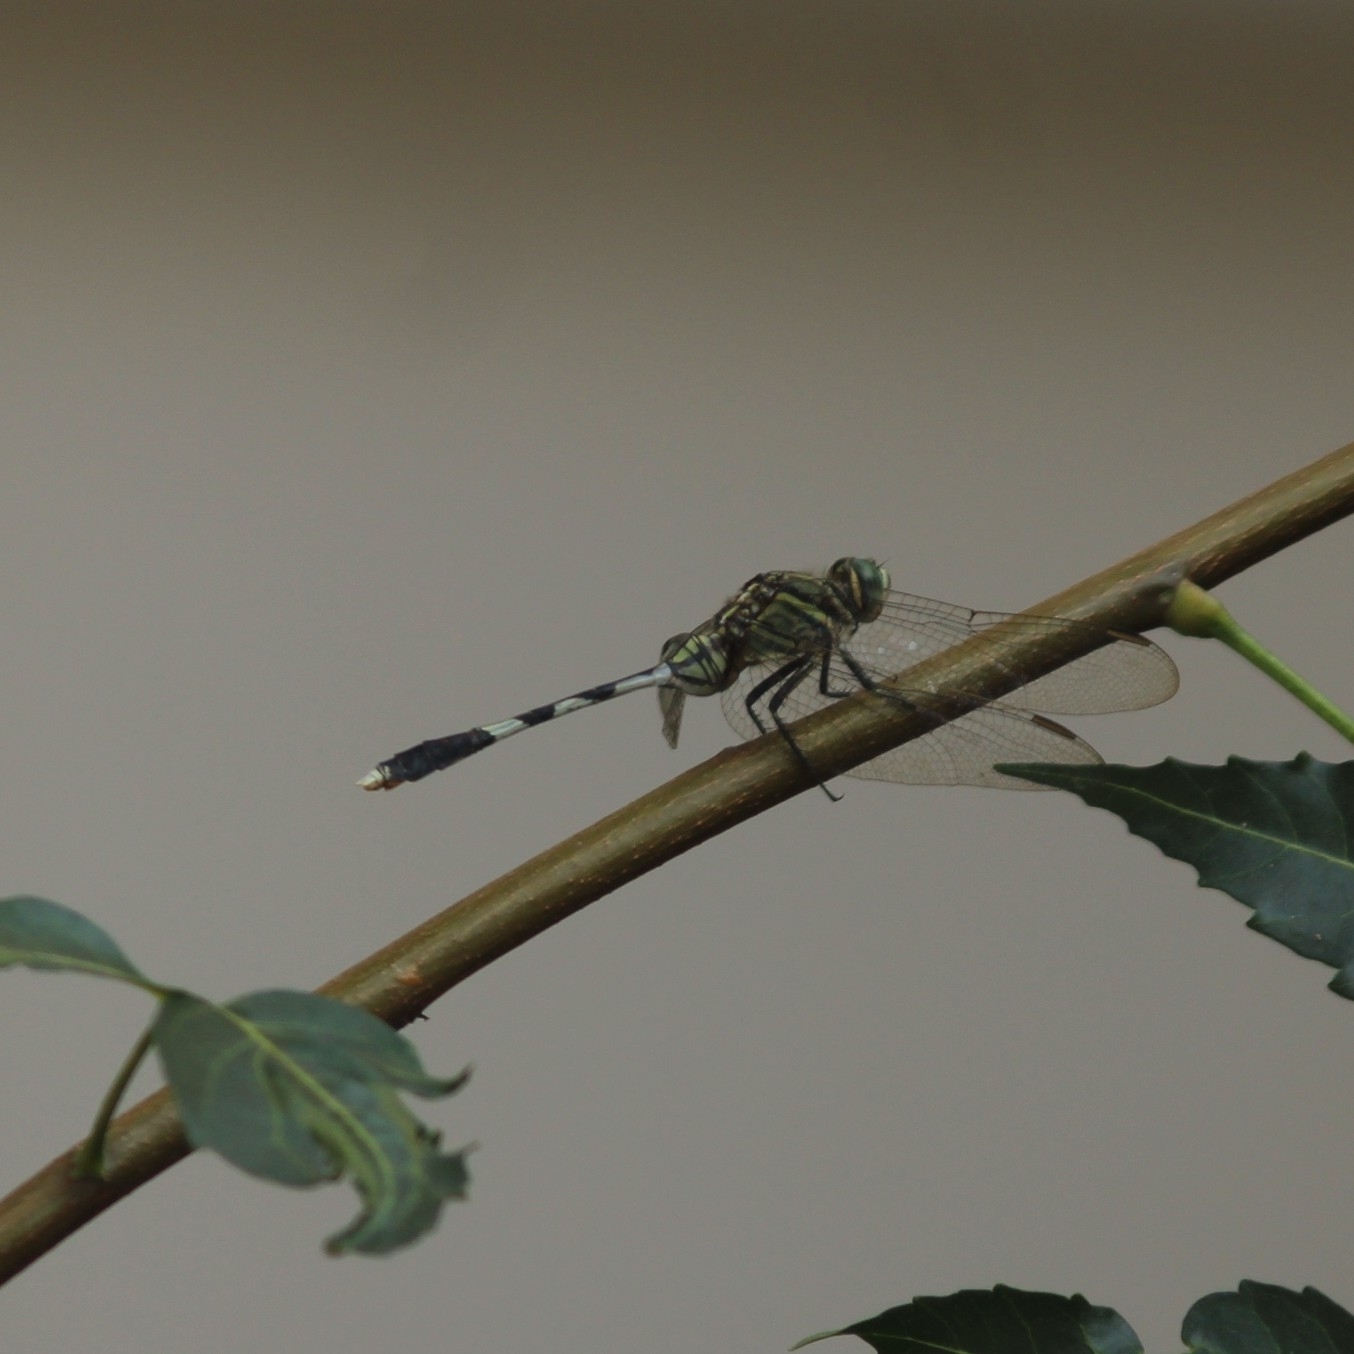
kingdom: Animalia
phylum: Arthropoda
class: Insecta
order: Odonata
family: Libellulidae
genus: Orthetrum
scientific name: Orthetrum sabina
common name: Slender skimmer
